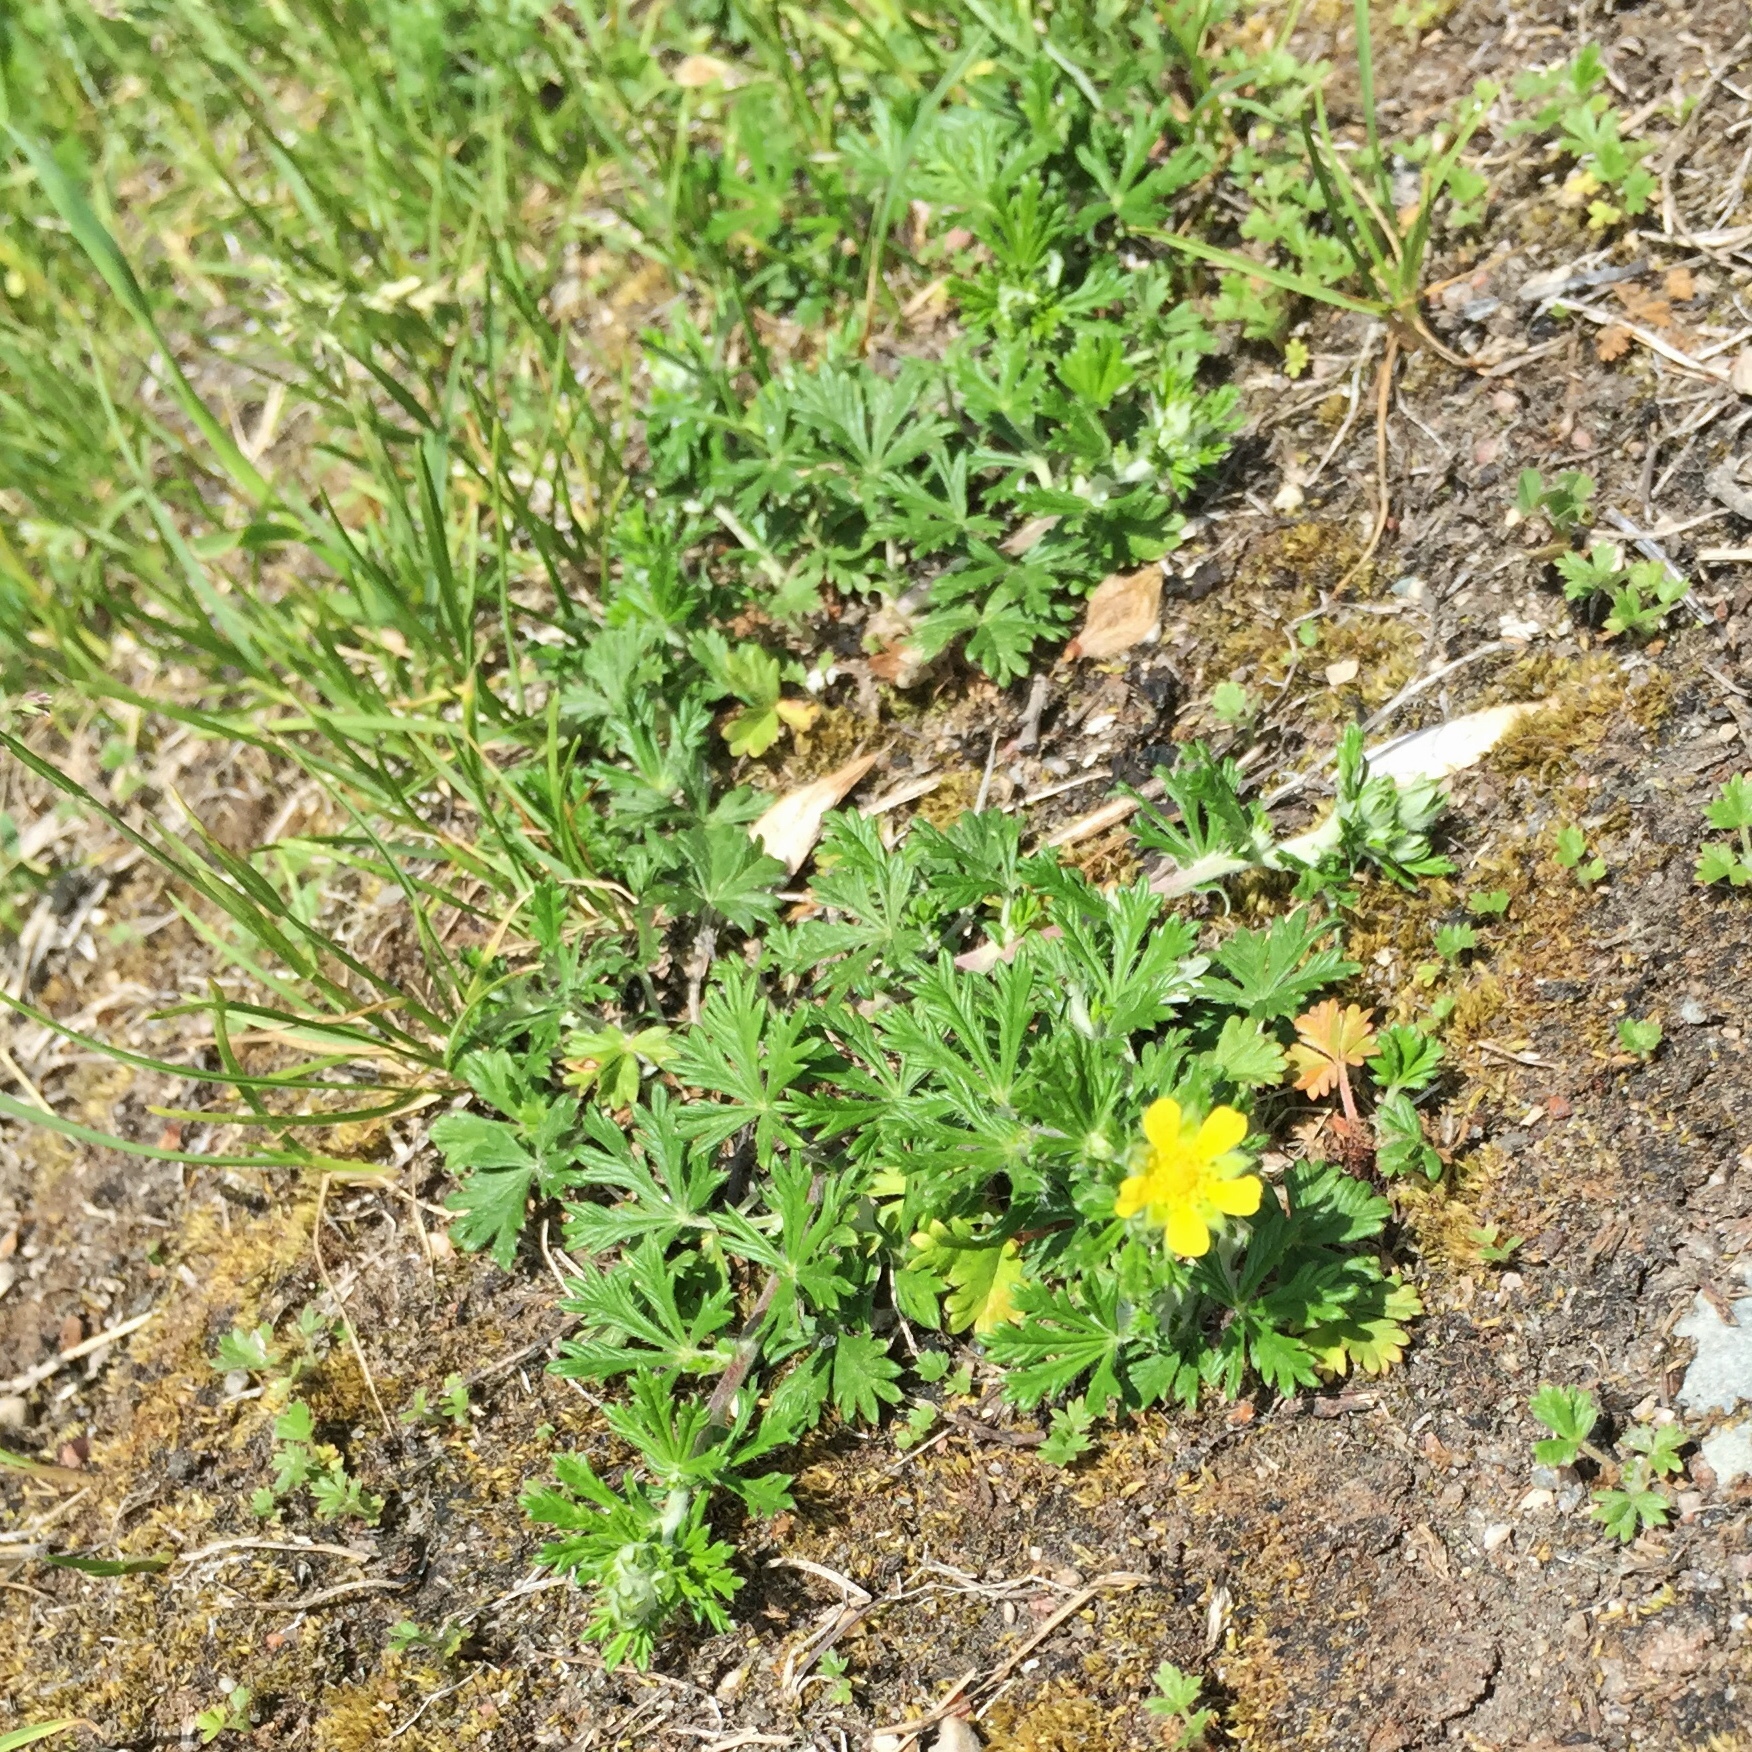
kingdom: Plantae
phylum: Tracheophyta
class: Magnoliopsida
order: Rosales
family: Rosaceae
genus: Potentilla
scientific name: Potentilla argentea
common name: Hoary cinquefoil
